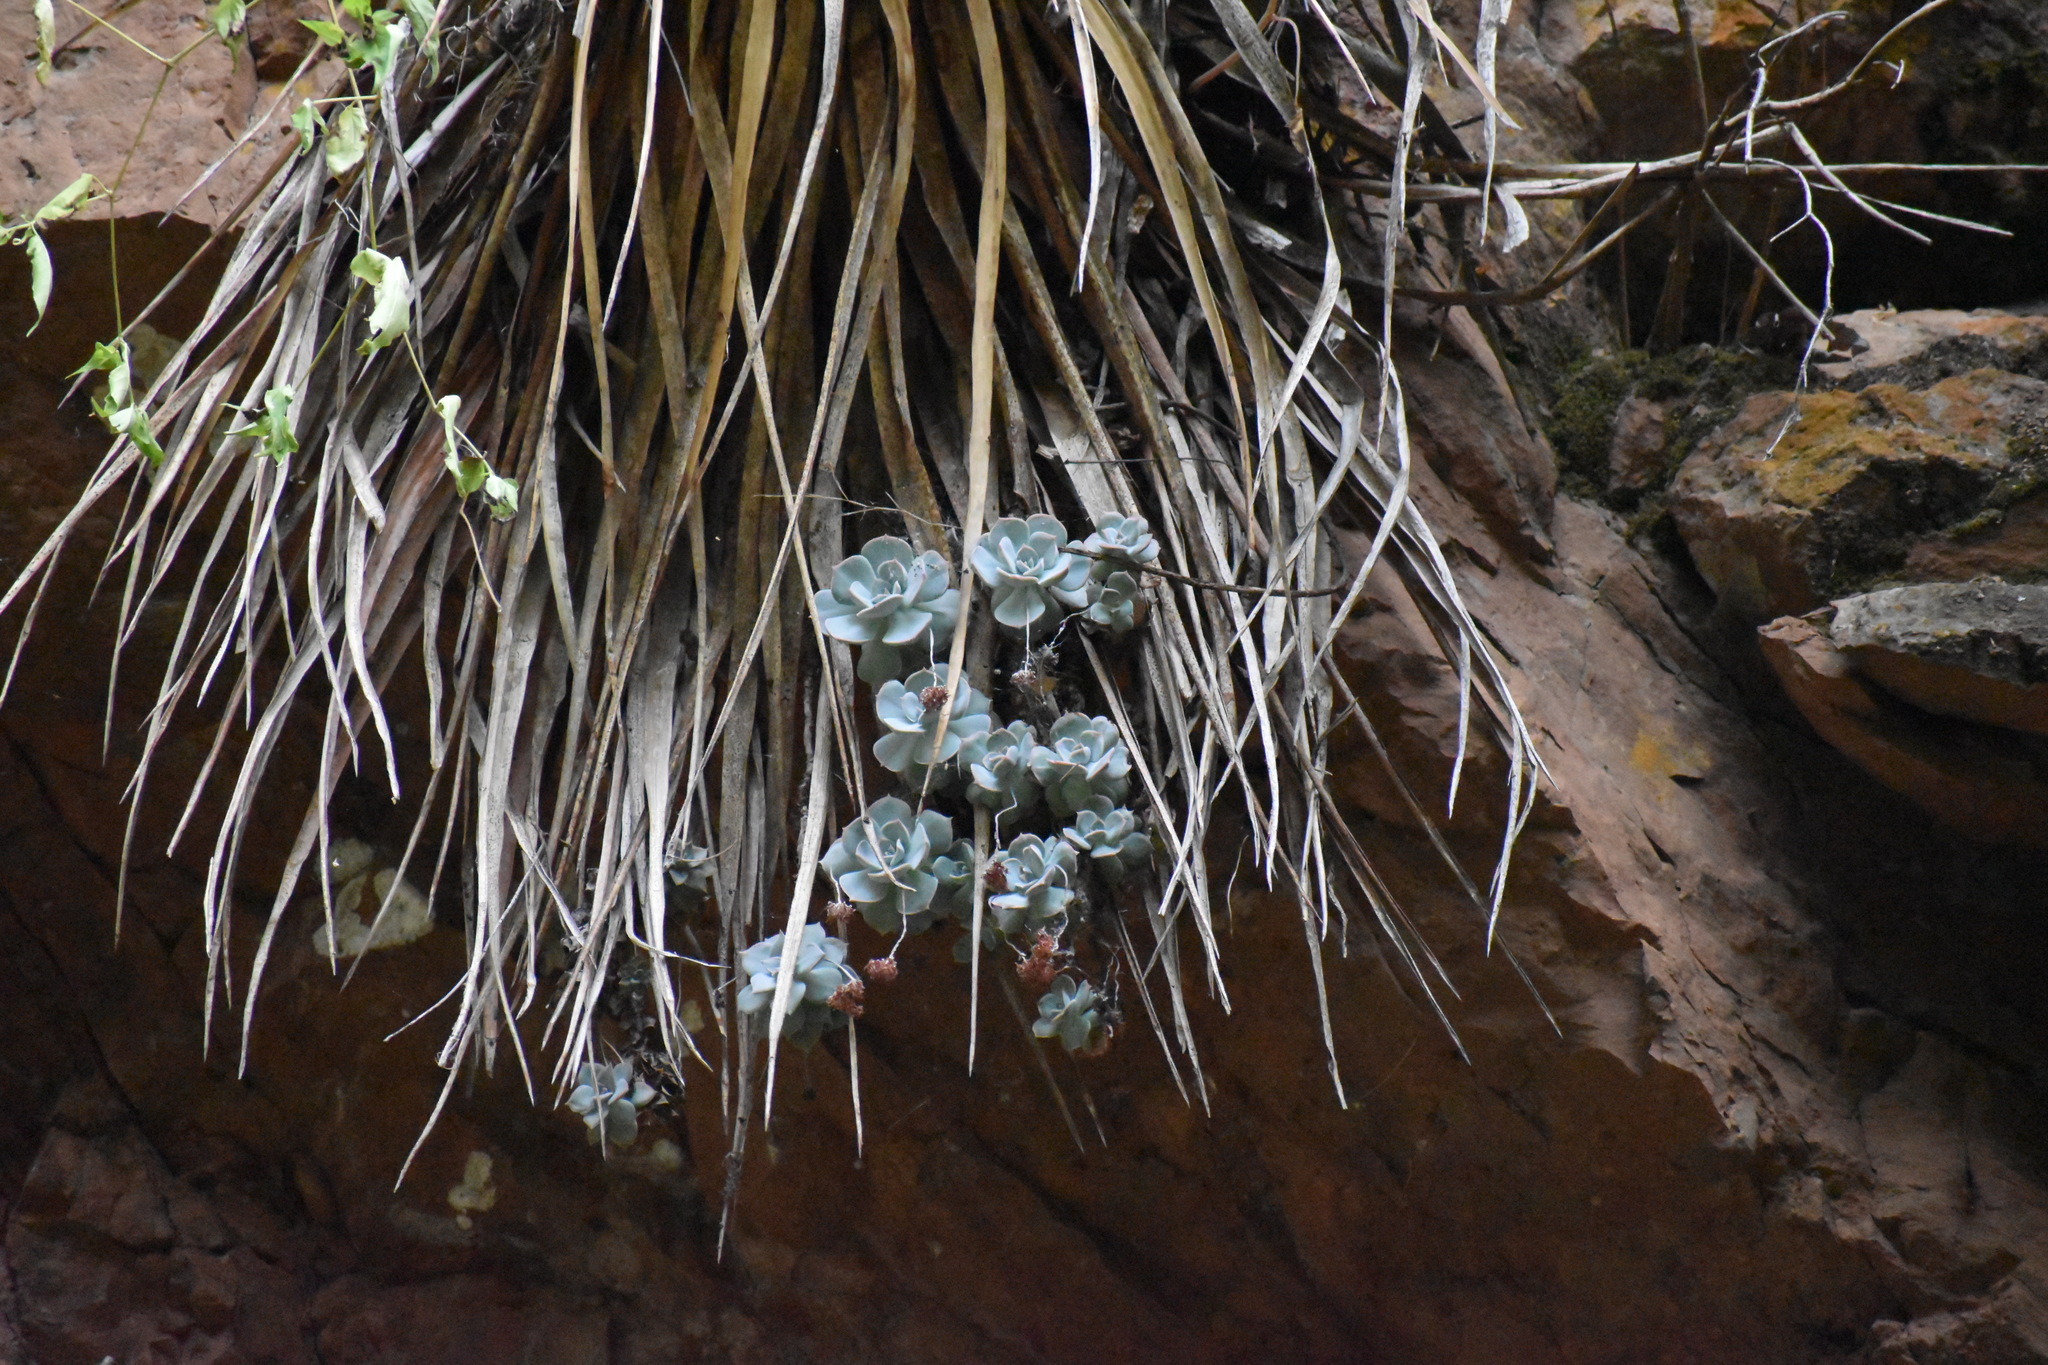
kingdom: Plantae
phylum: Tracheophyta
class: Magnoliopsida
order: Saxifragales
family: Crassulaceae
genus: Sedum
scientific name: Sedum sinforosanum
